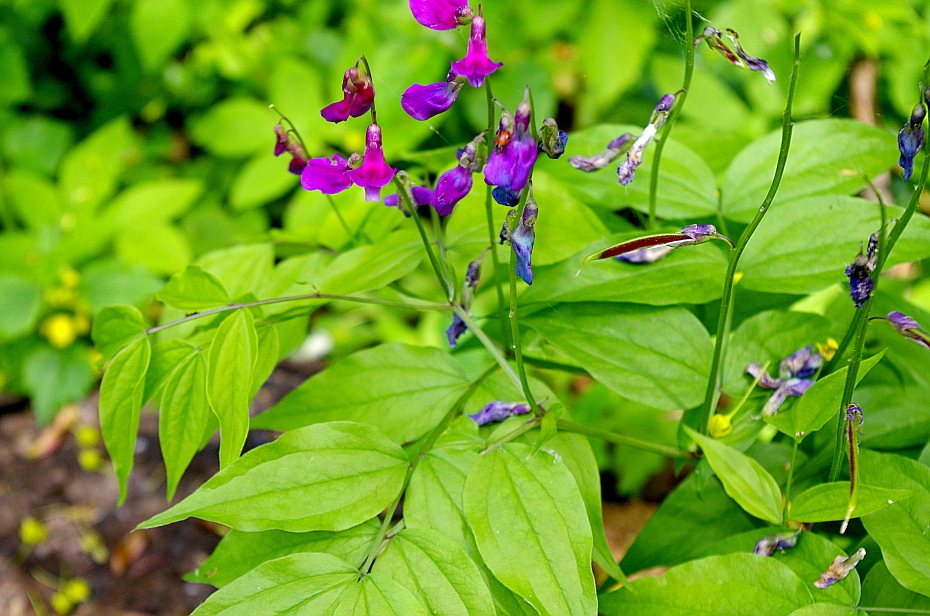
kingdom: Plantae
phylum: Tracheophyta
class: Magnoliopsida
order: Fabales
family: Fabaceae
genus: Lathyrus
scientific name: Lathyrus vernus
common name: Spring pea
